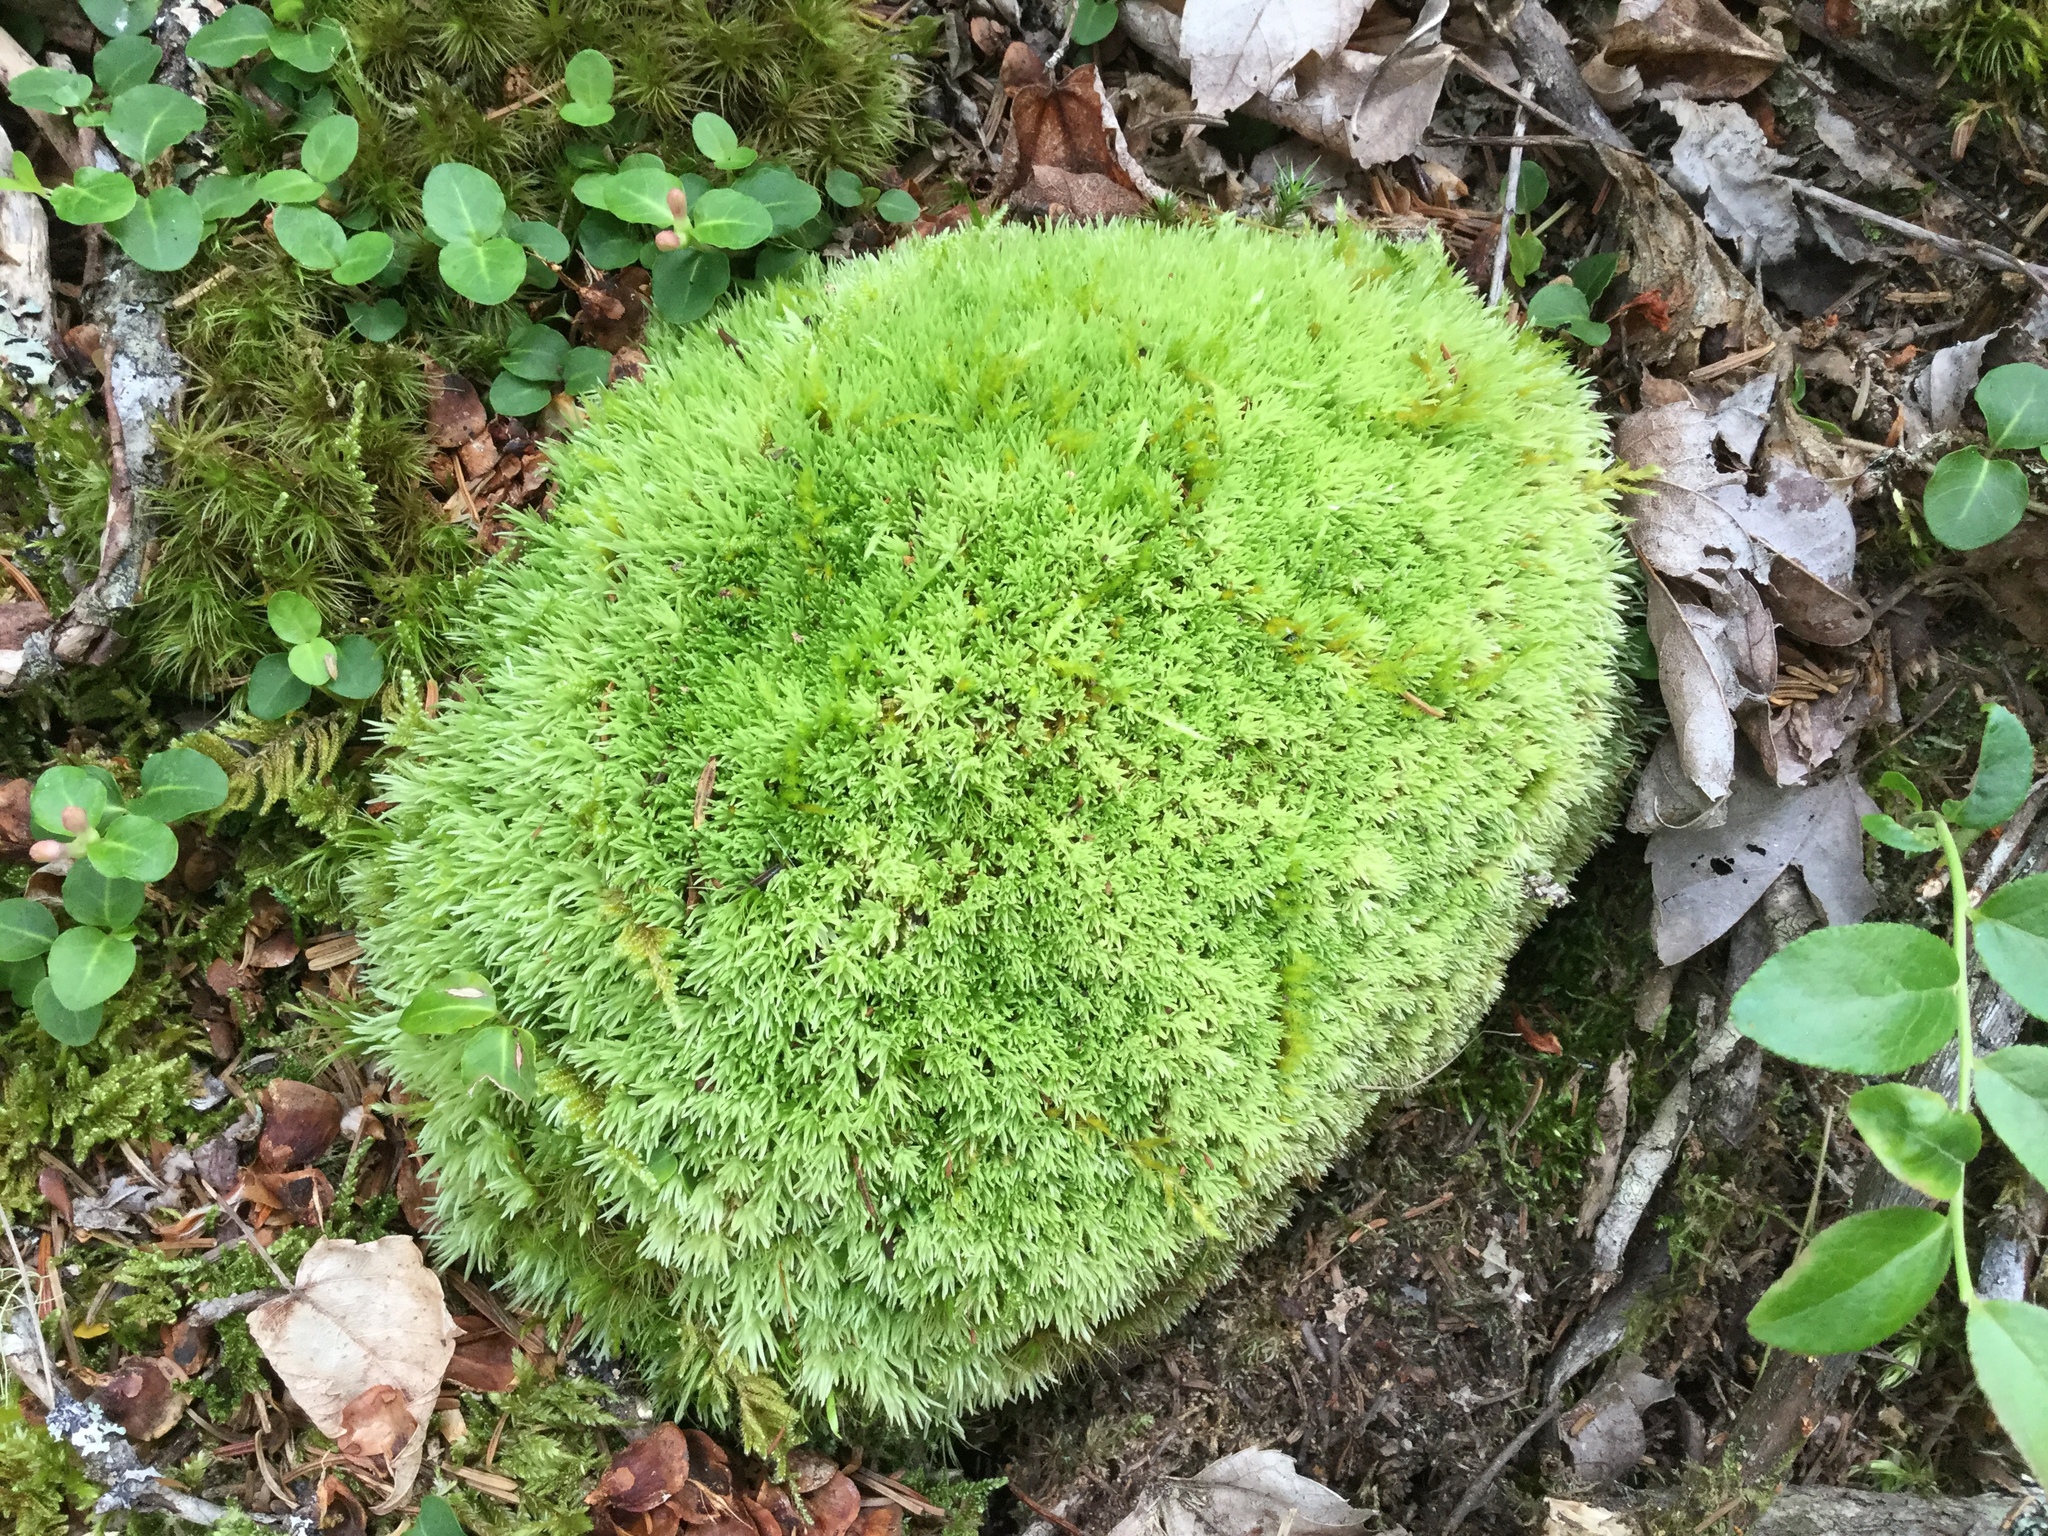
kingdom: Plantae
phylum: Bryophyta
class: Bryopsida
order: Dicranales
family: Leucobryaceae
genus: Leucobryum
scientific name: Leucobryum glaucum
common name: Large white-moss
